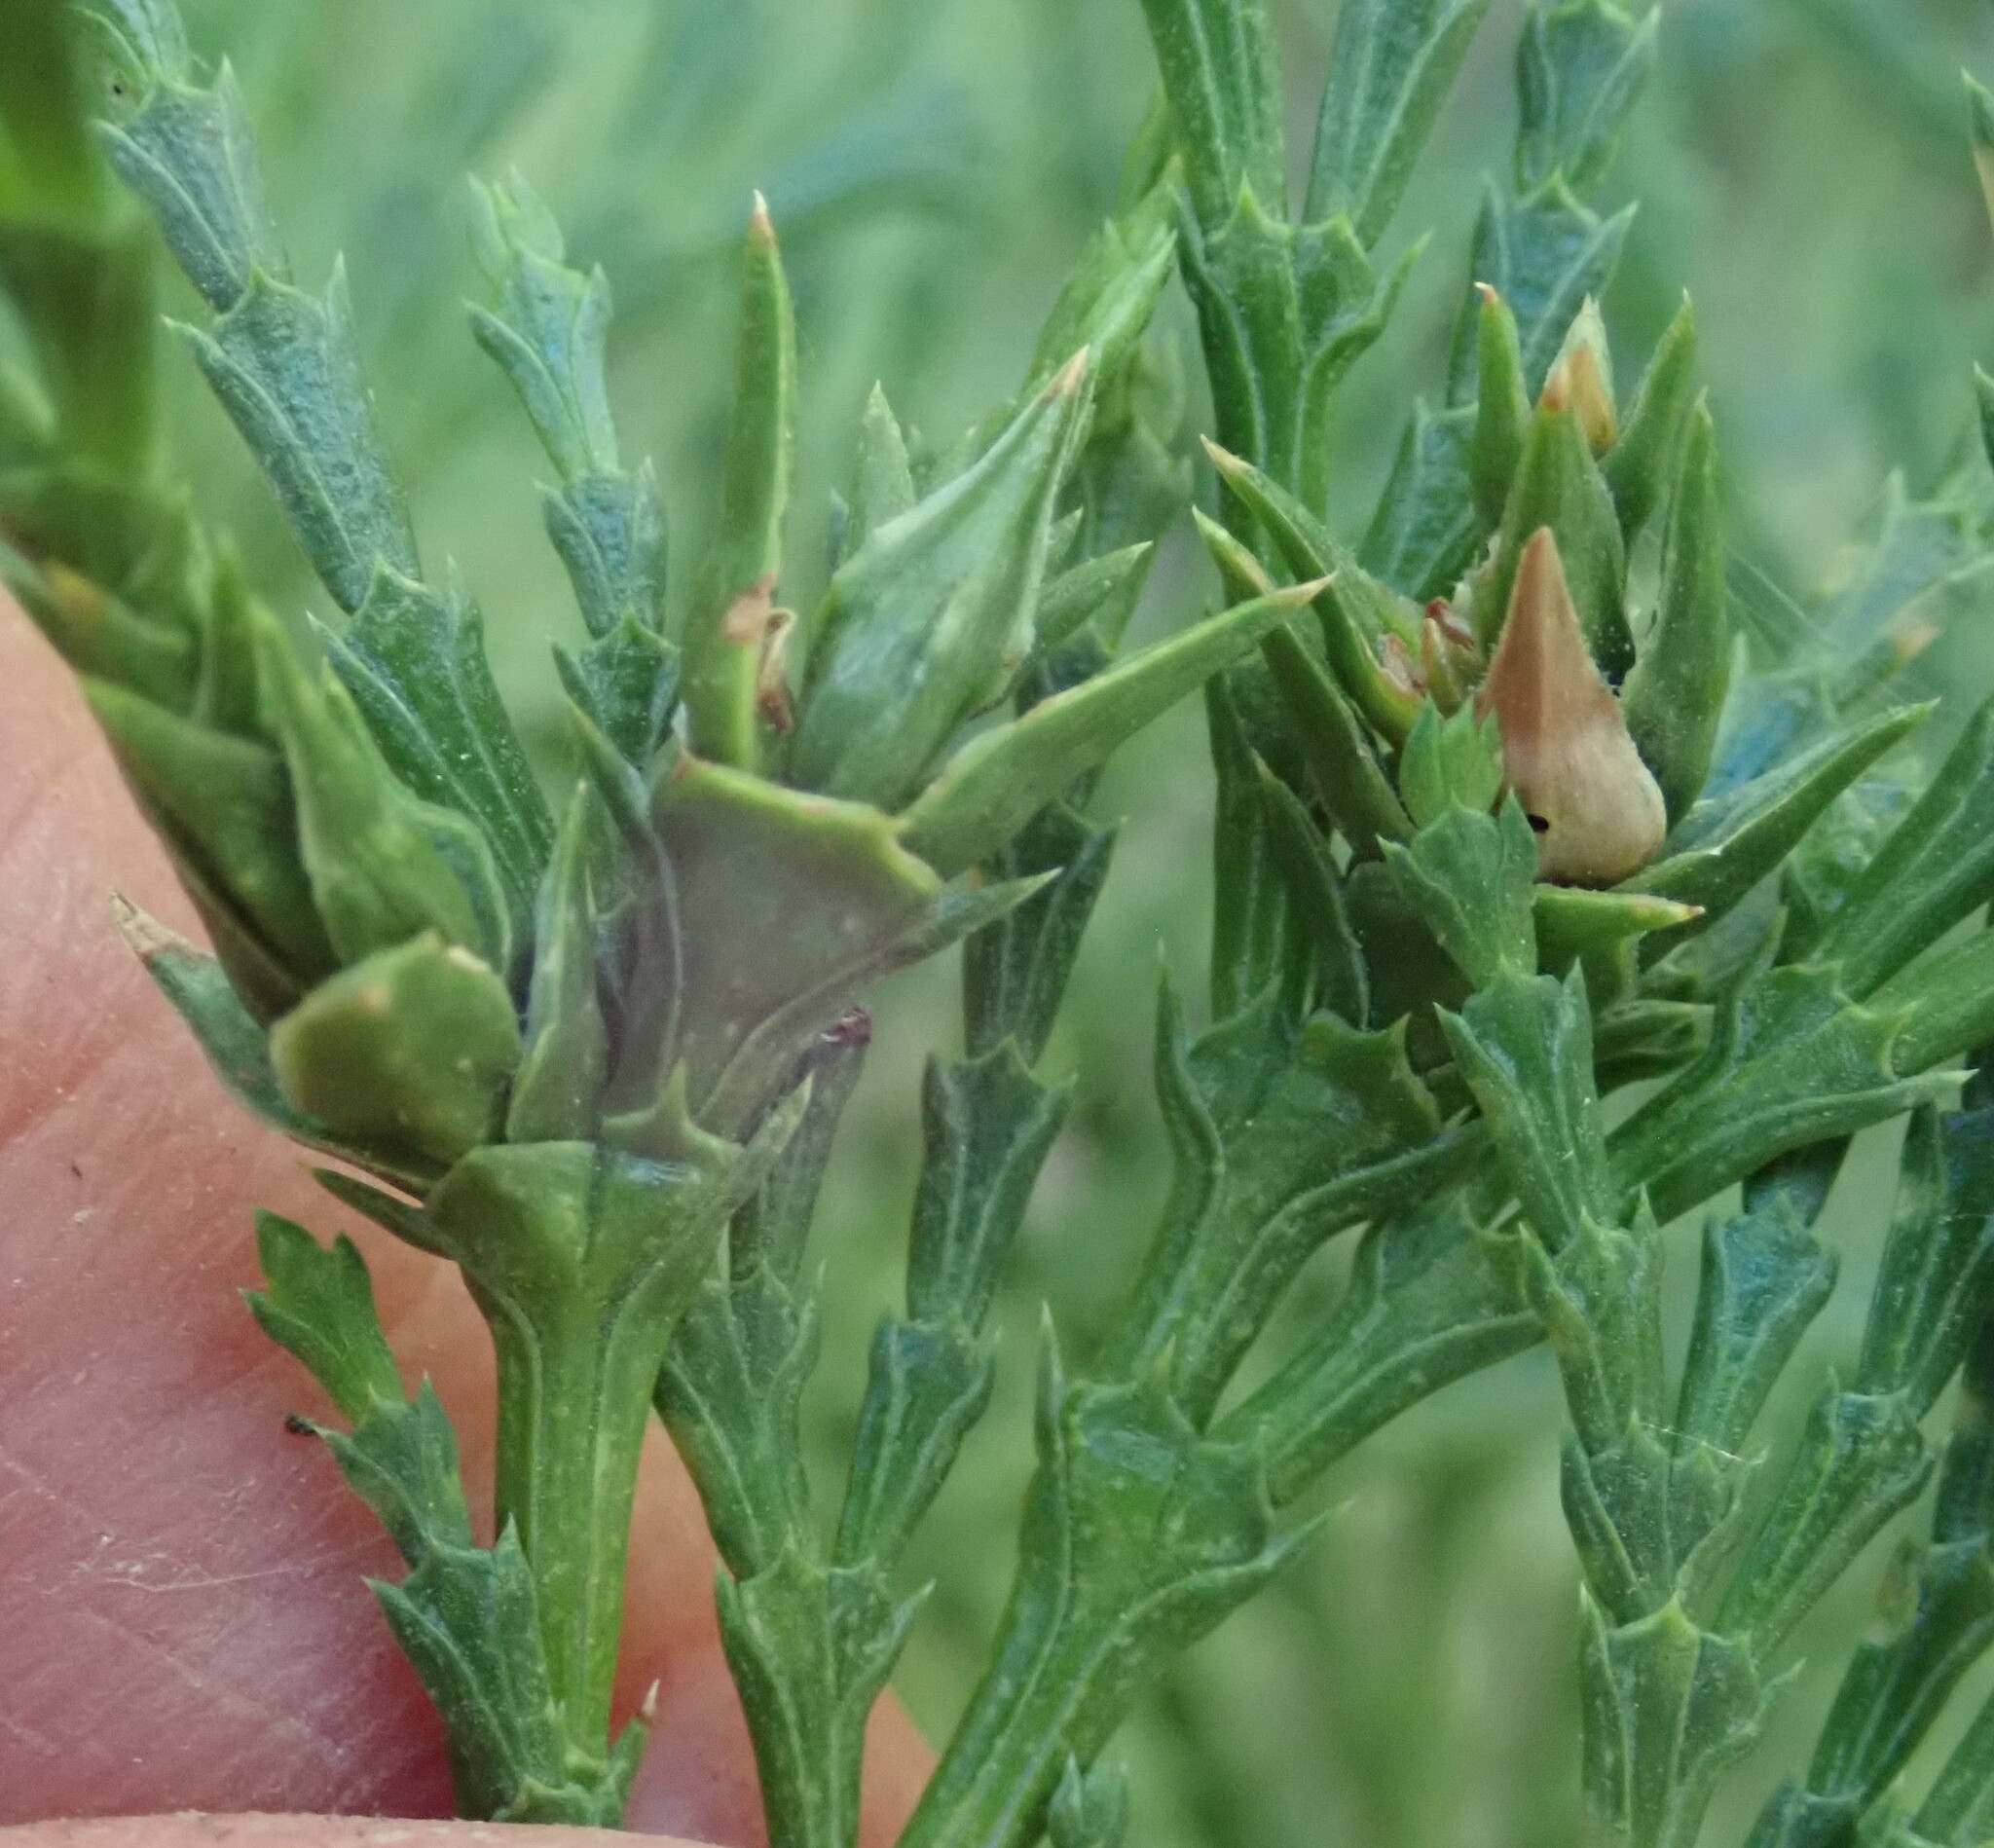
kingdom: Animalia
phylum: Arthropoda
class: Insecta
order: Diptera
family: Cecidomyiidae
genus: Walshomyia
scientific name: Walshomyia
